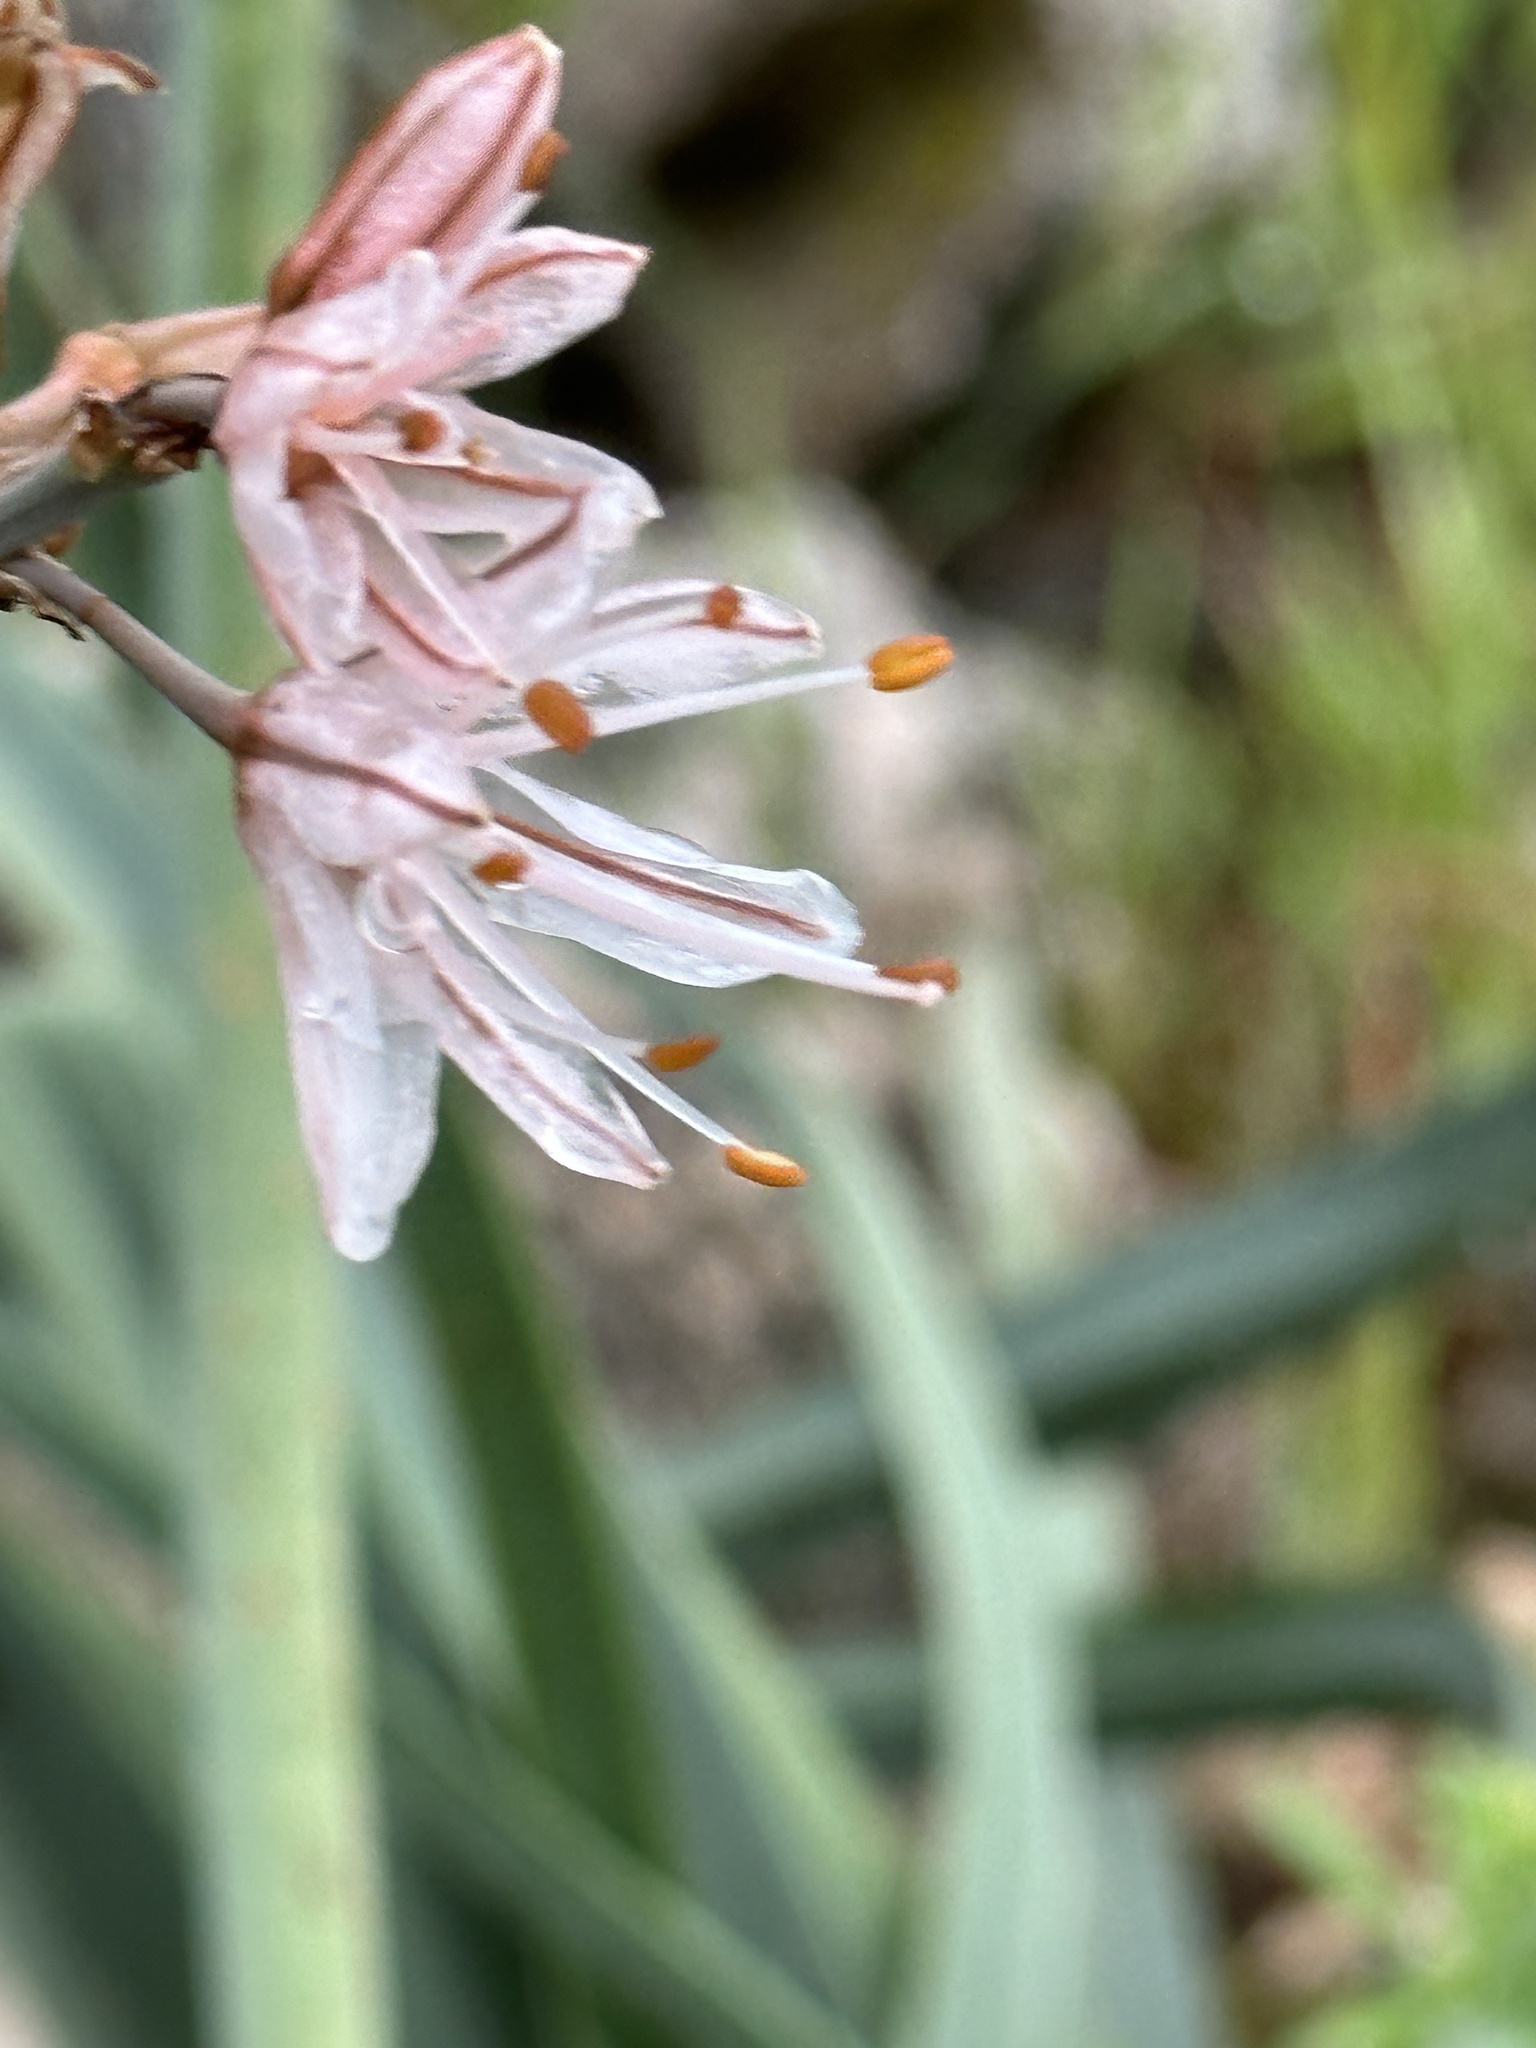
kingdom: Plantae
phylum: Tracheophyta
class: Liliopsida
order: Asparagales
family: Asphodelaceae
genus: Asphodelus
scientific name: Asphodelus fistulosus
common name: Onionweed
